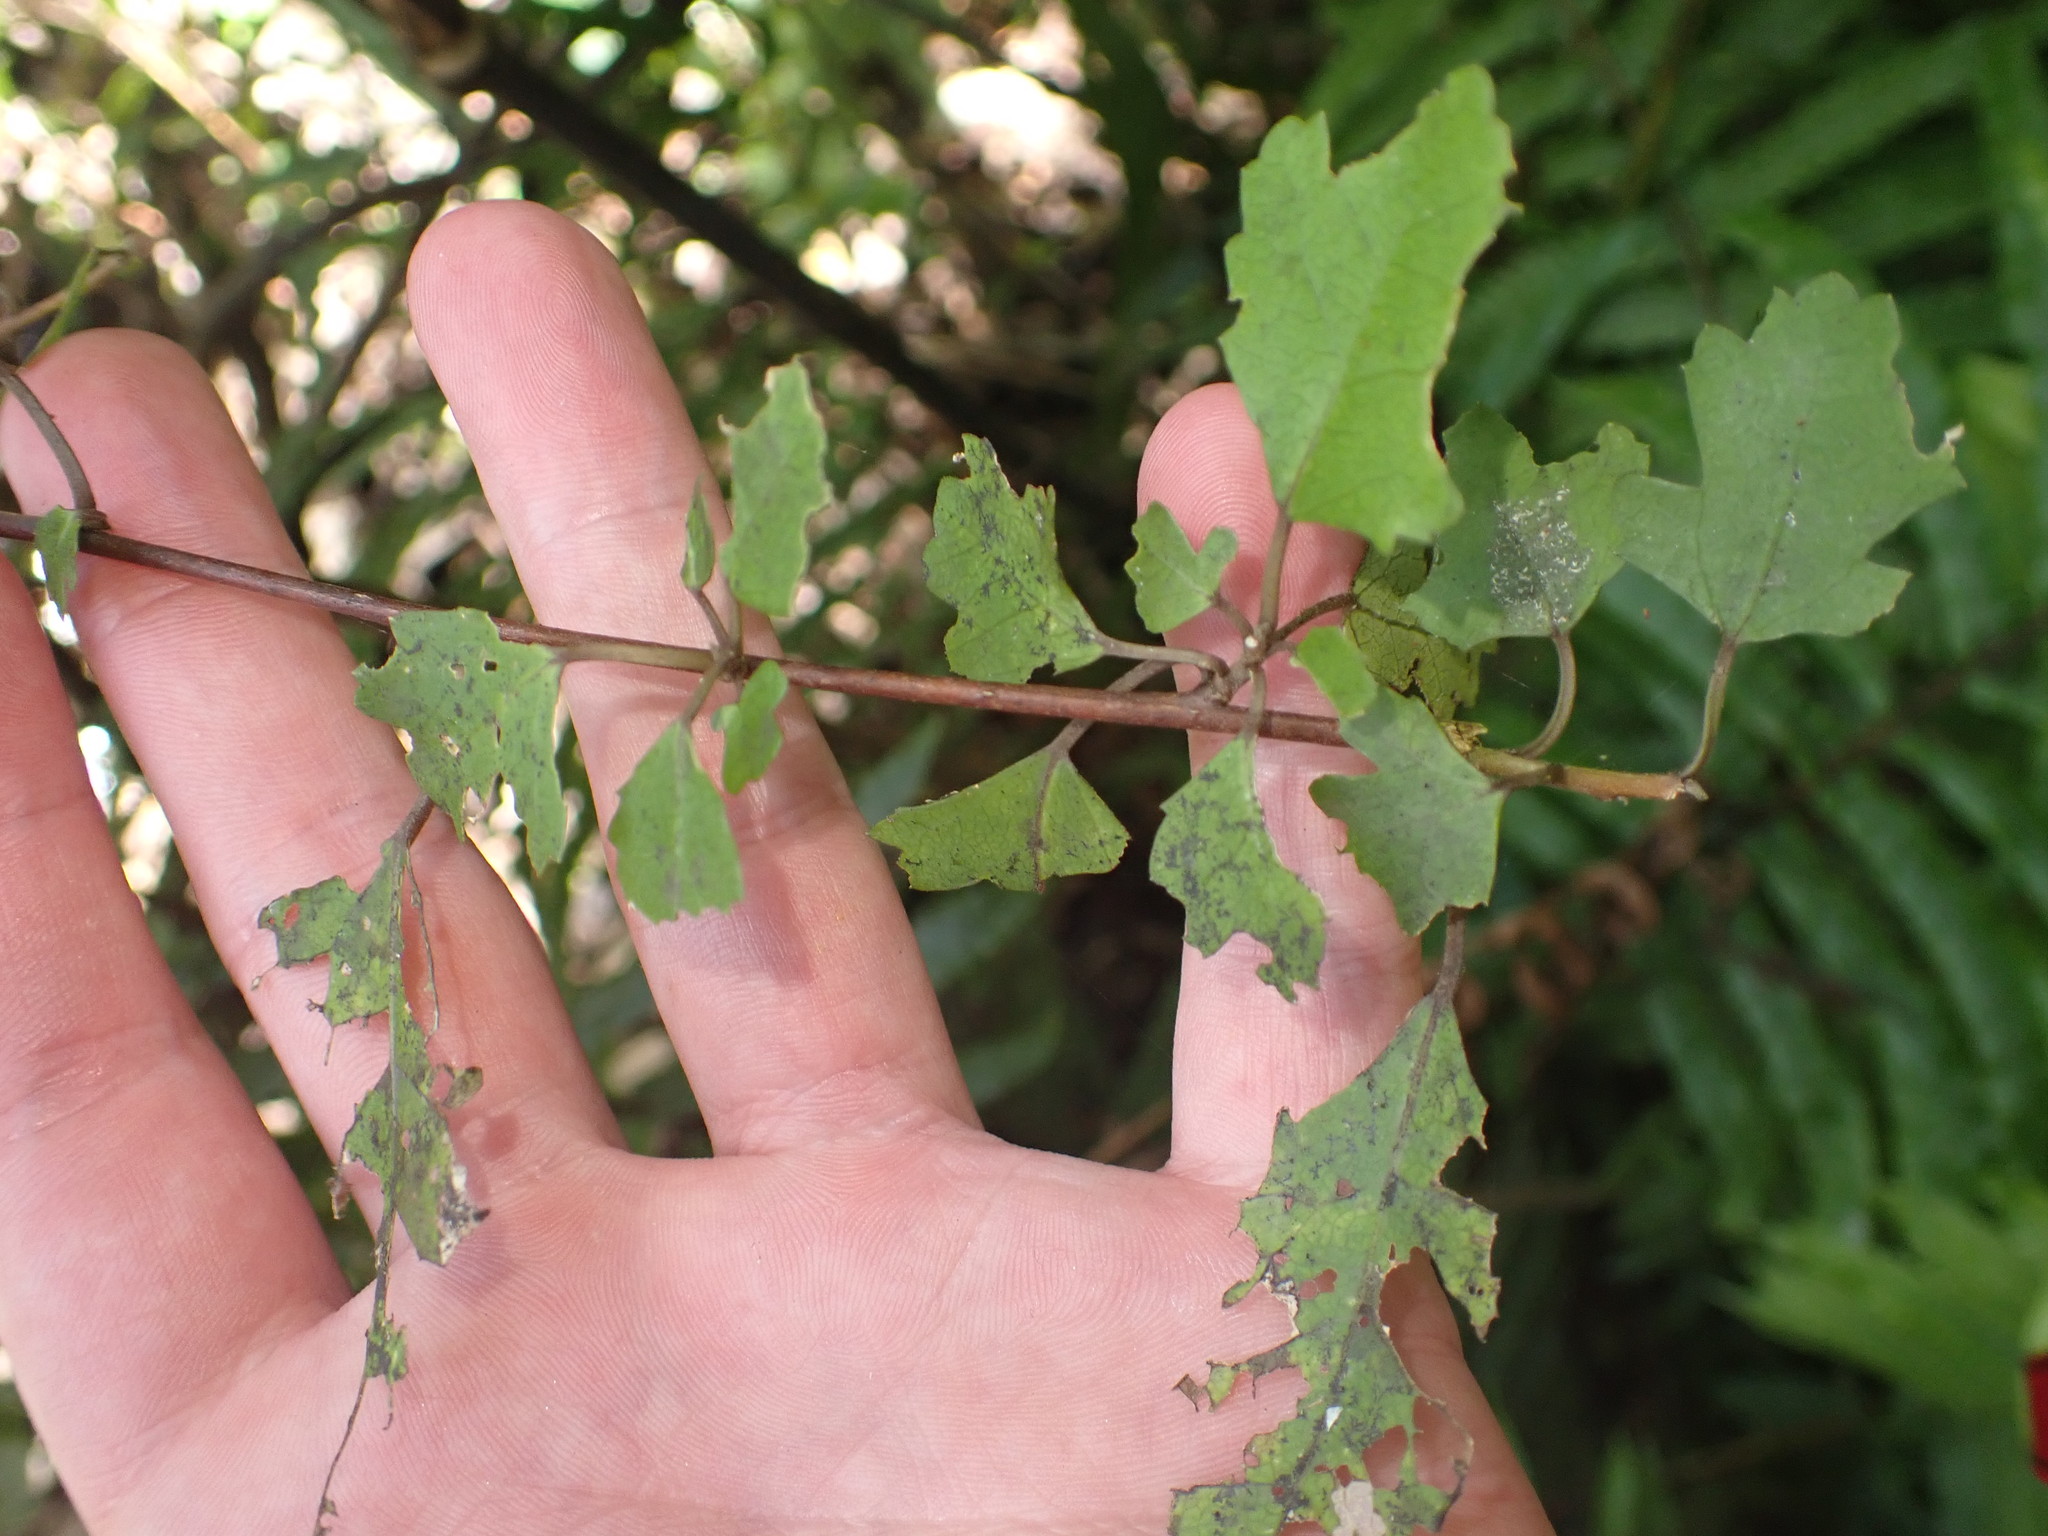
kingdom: Plantae
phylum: Tracheophyta
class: Magnoliopsida
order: Malvales
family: Malvaceae
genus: Plagianthus
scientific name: Plagianthus regius
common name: Manatu
